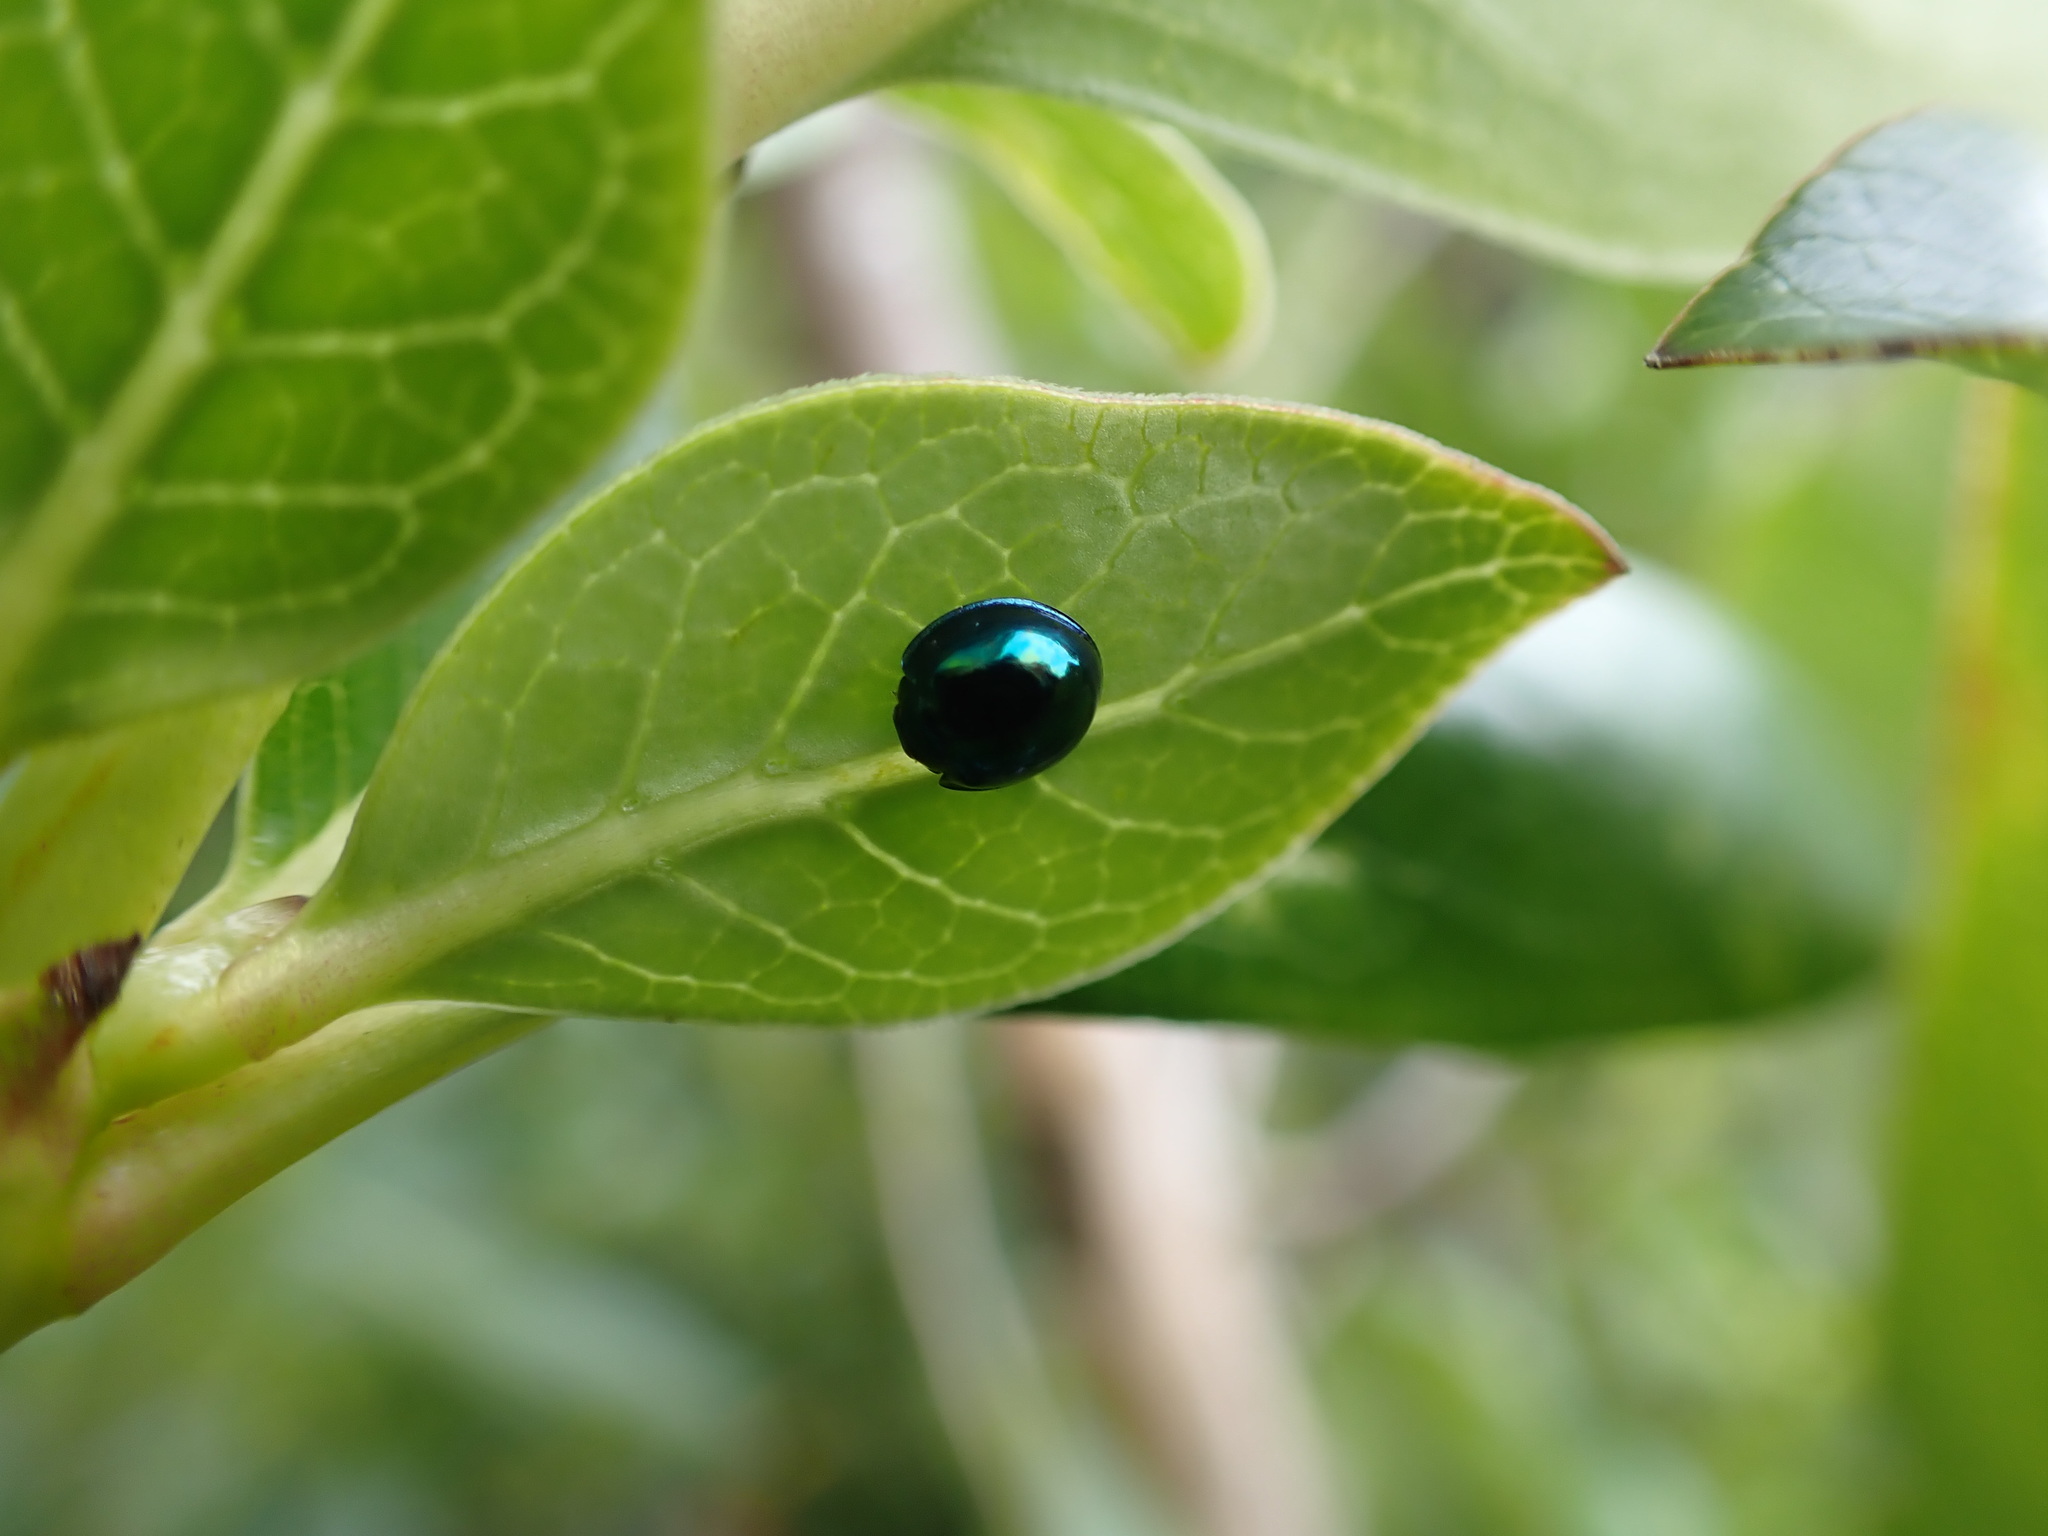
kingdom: Animalia
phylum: Arthropoda
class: Insecta
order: Coleoptera
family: Coccinellidae
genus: Halmus
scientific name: Halmus chalybeus
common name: Steel blue ladybird beetle
